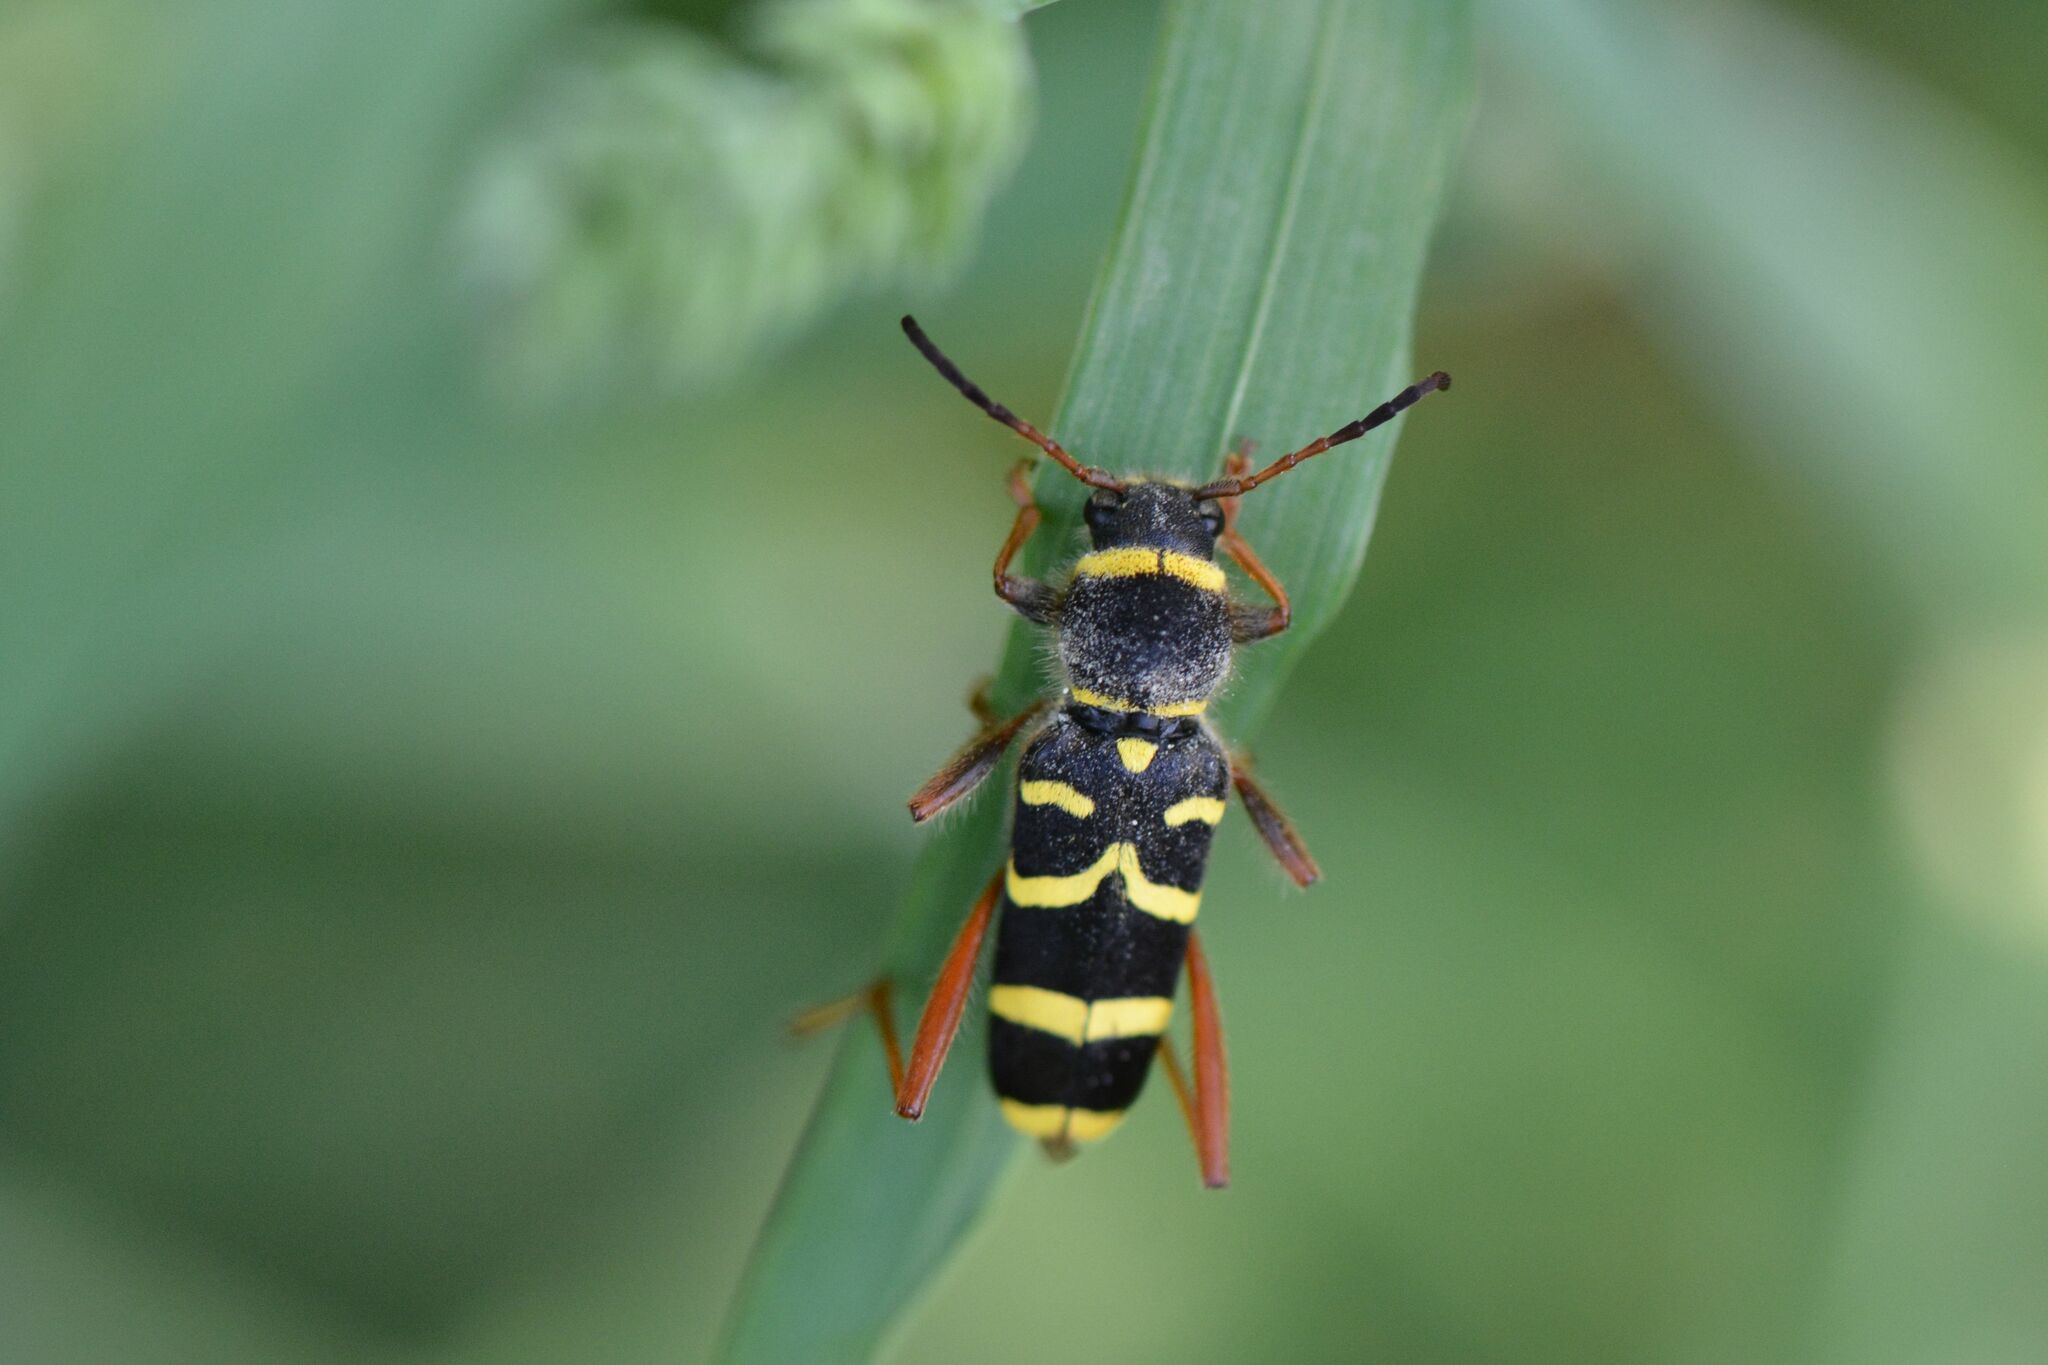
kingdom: Animalia
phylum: Arthropoda
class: Insecta
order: Coleoptera
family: Cerambycidae
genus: Clytus
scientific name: Clytus arietis
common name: Wasp beetle
